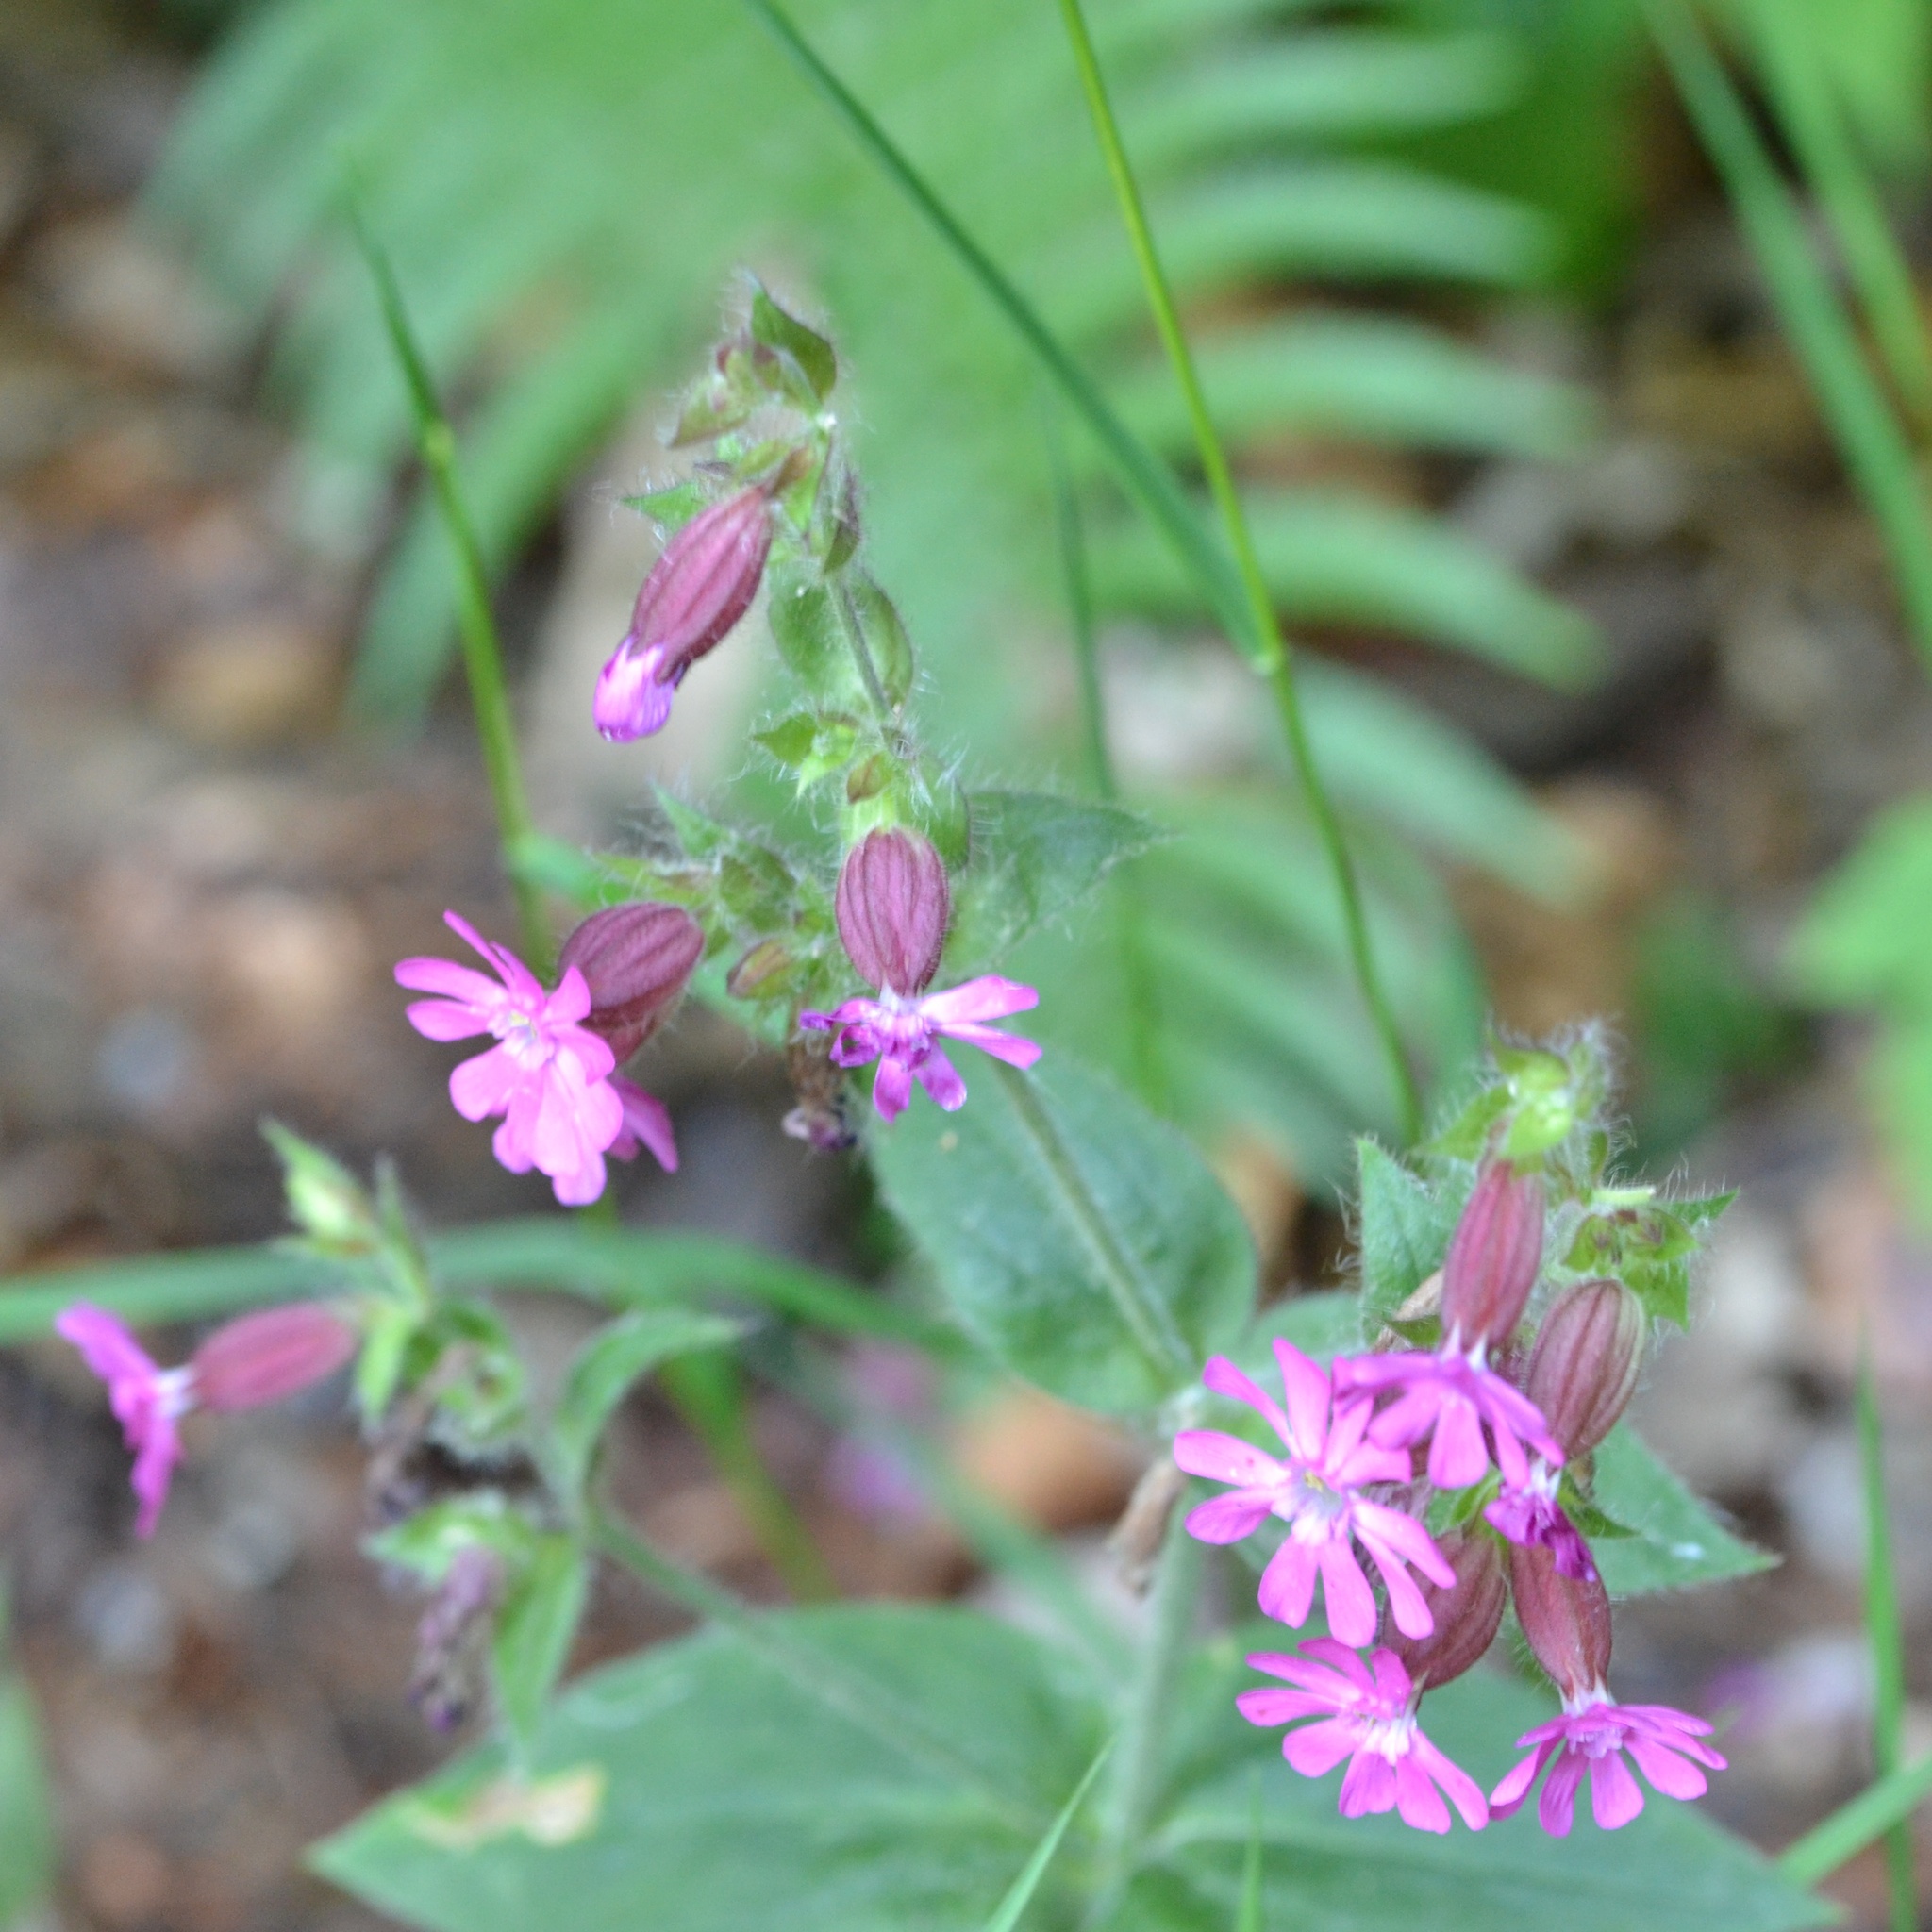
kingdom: Plantae
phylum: Tracheophyta
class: Magnoliopsida
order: Caryophyllales
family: Caryophyllaceae
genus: Silene
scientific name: Silene dioica
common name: Red campion
